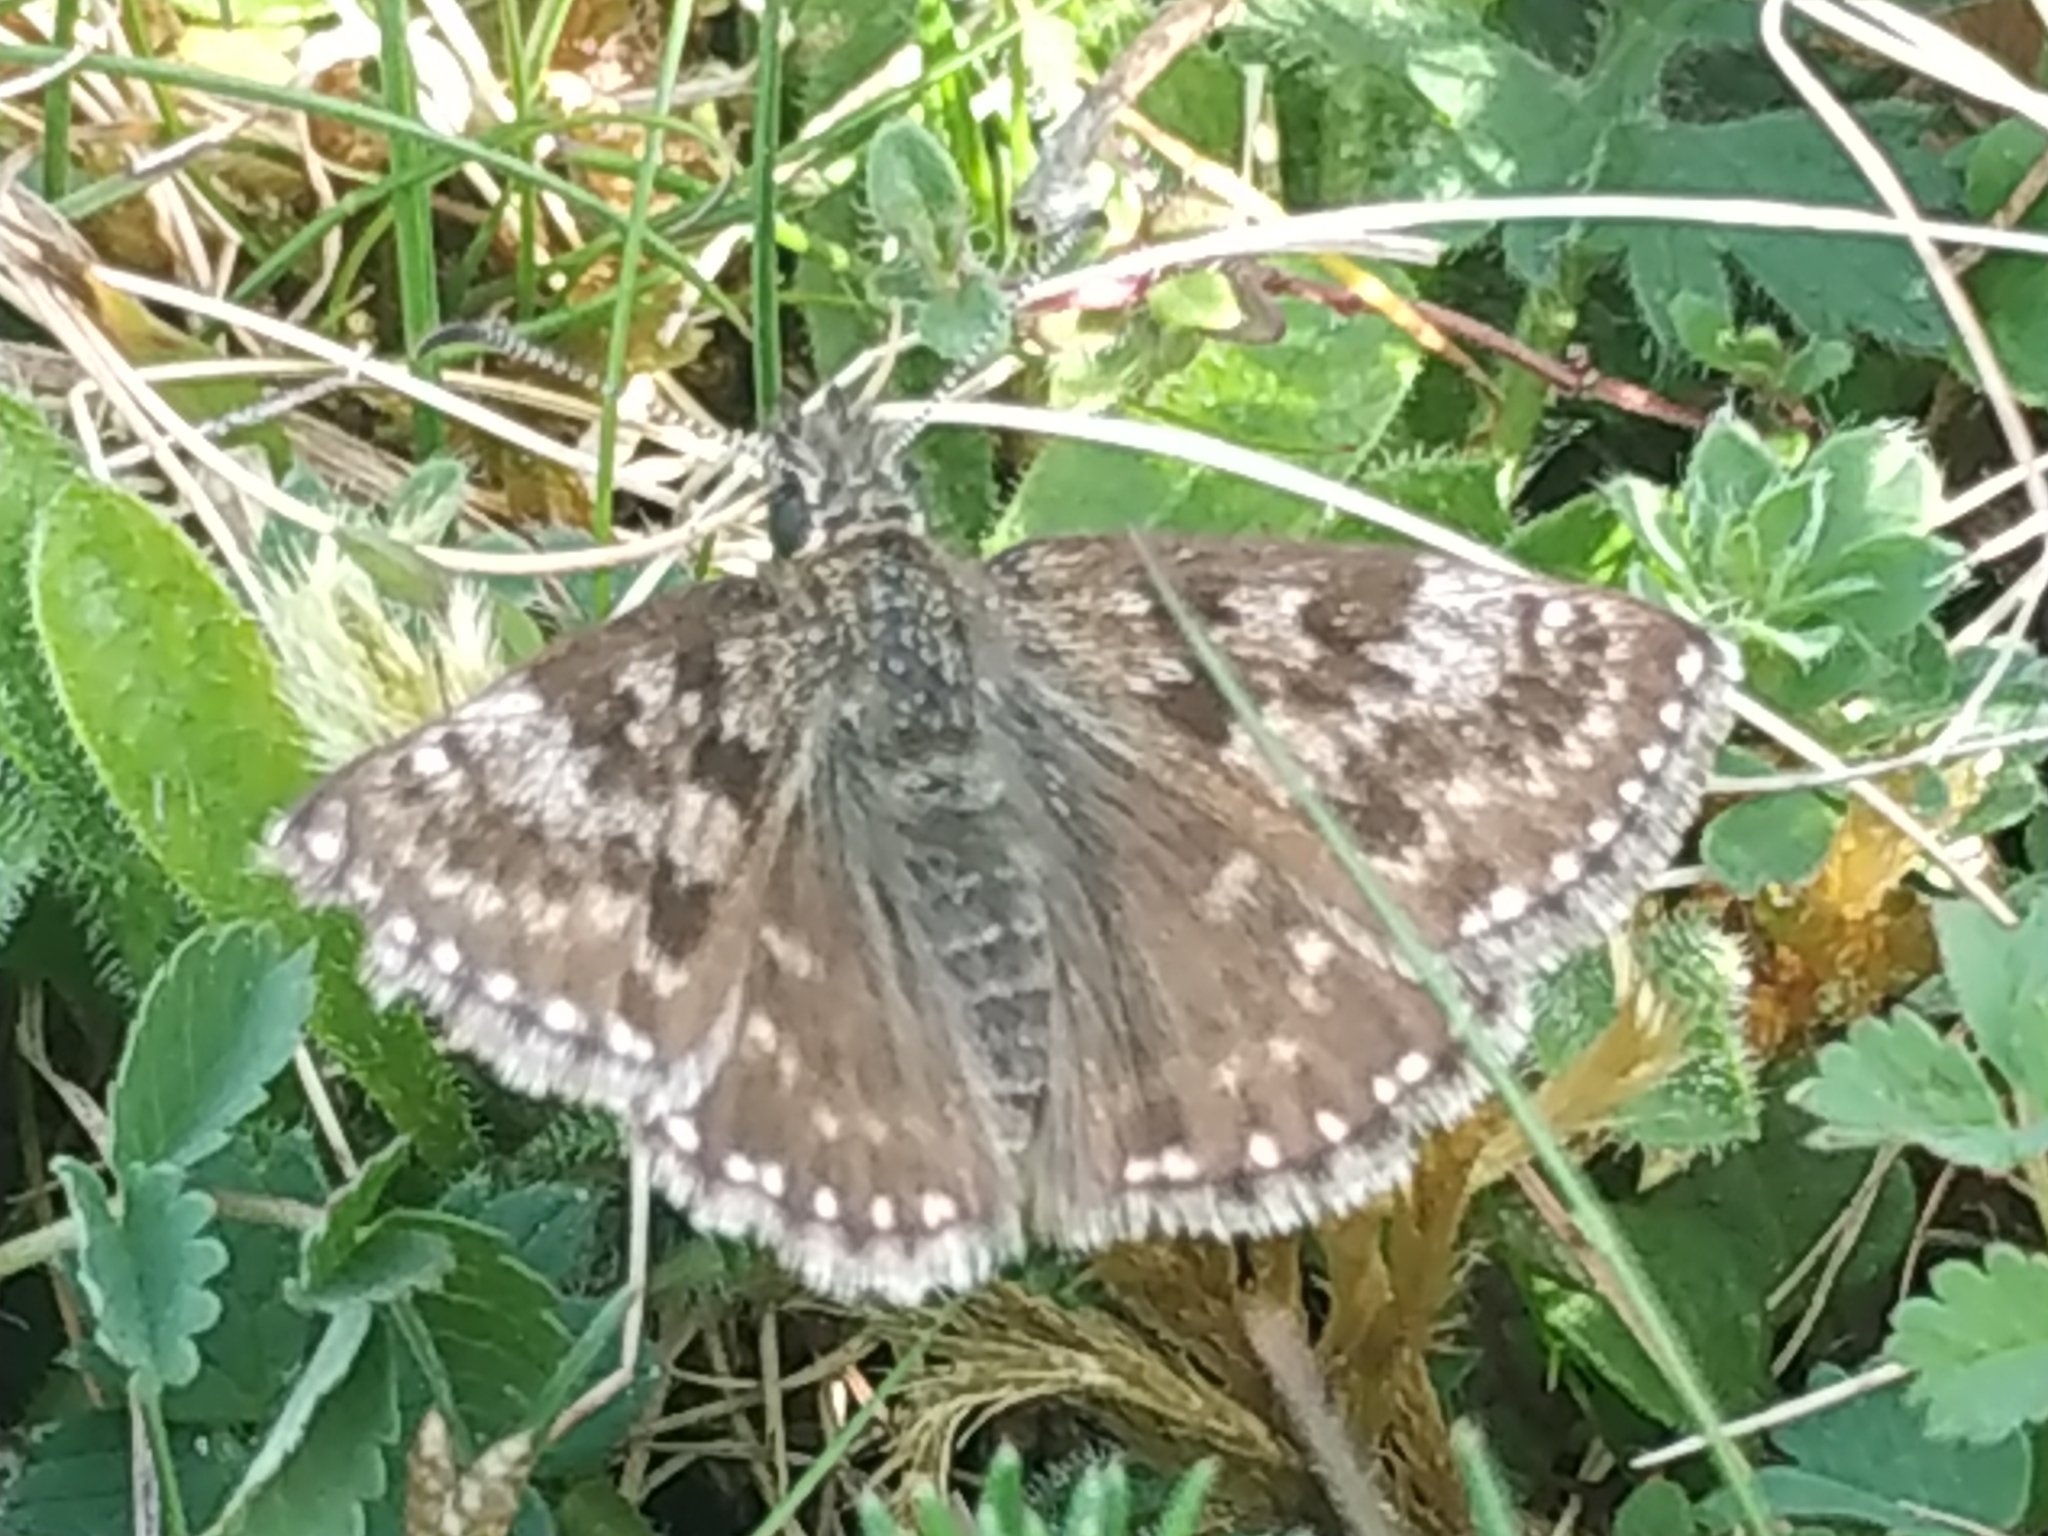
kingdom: Animalia
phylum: Arthropoda
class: Insecta
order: Lepidoptera
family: Hesperiidae
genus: Erynnis
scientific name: Erynnis tages
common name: Dingy skipper
